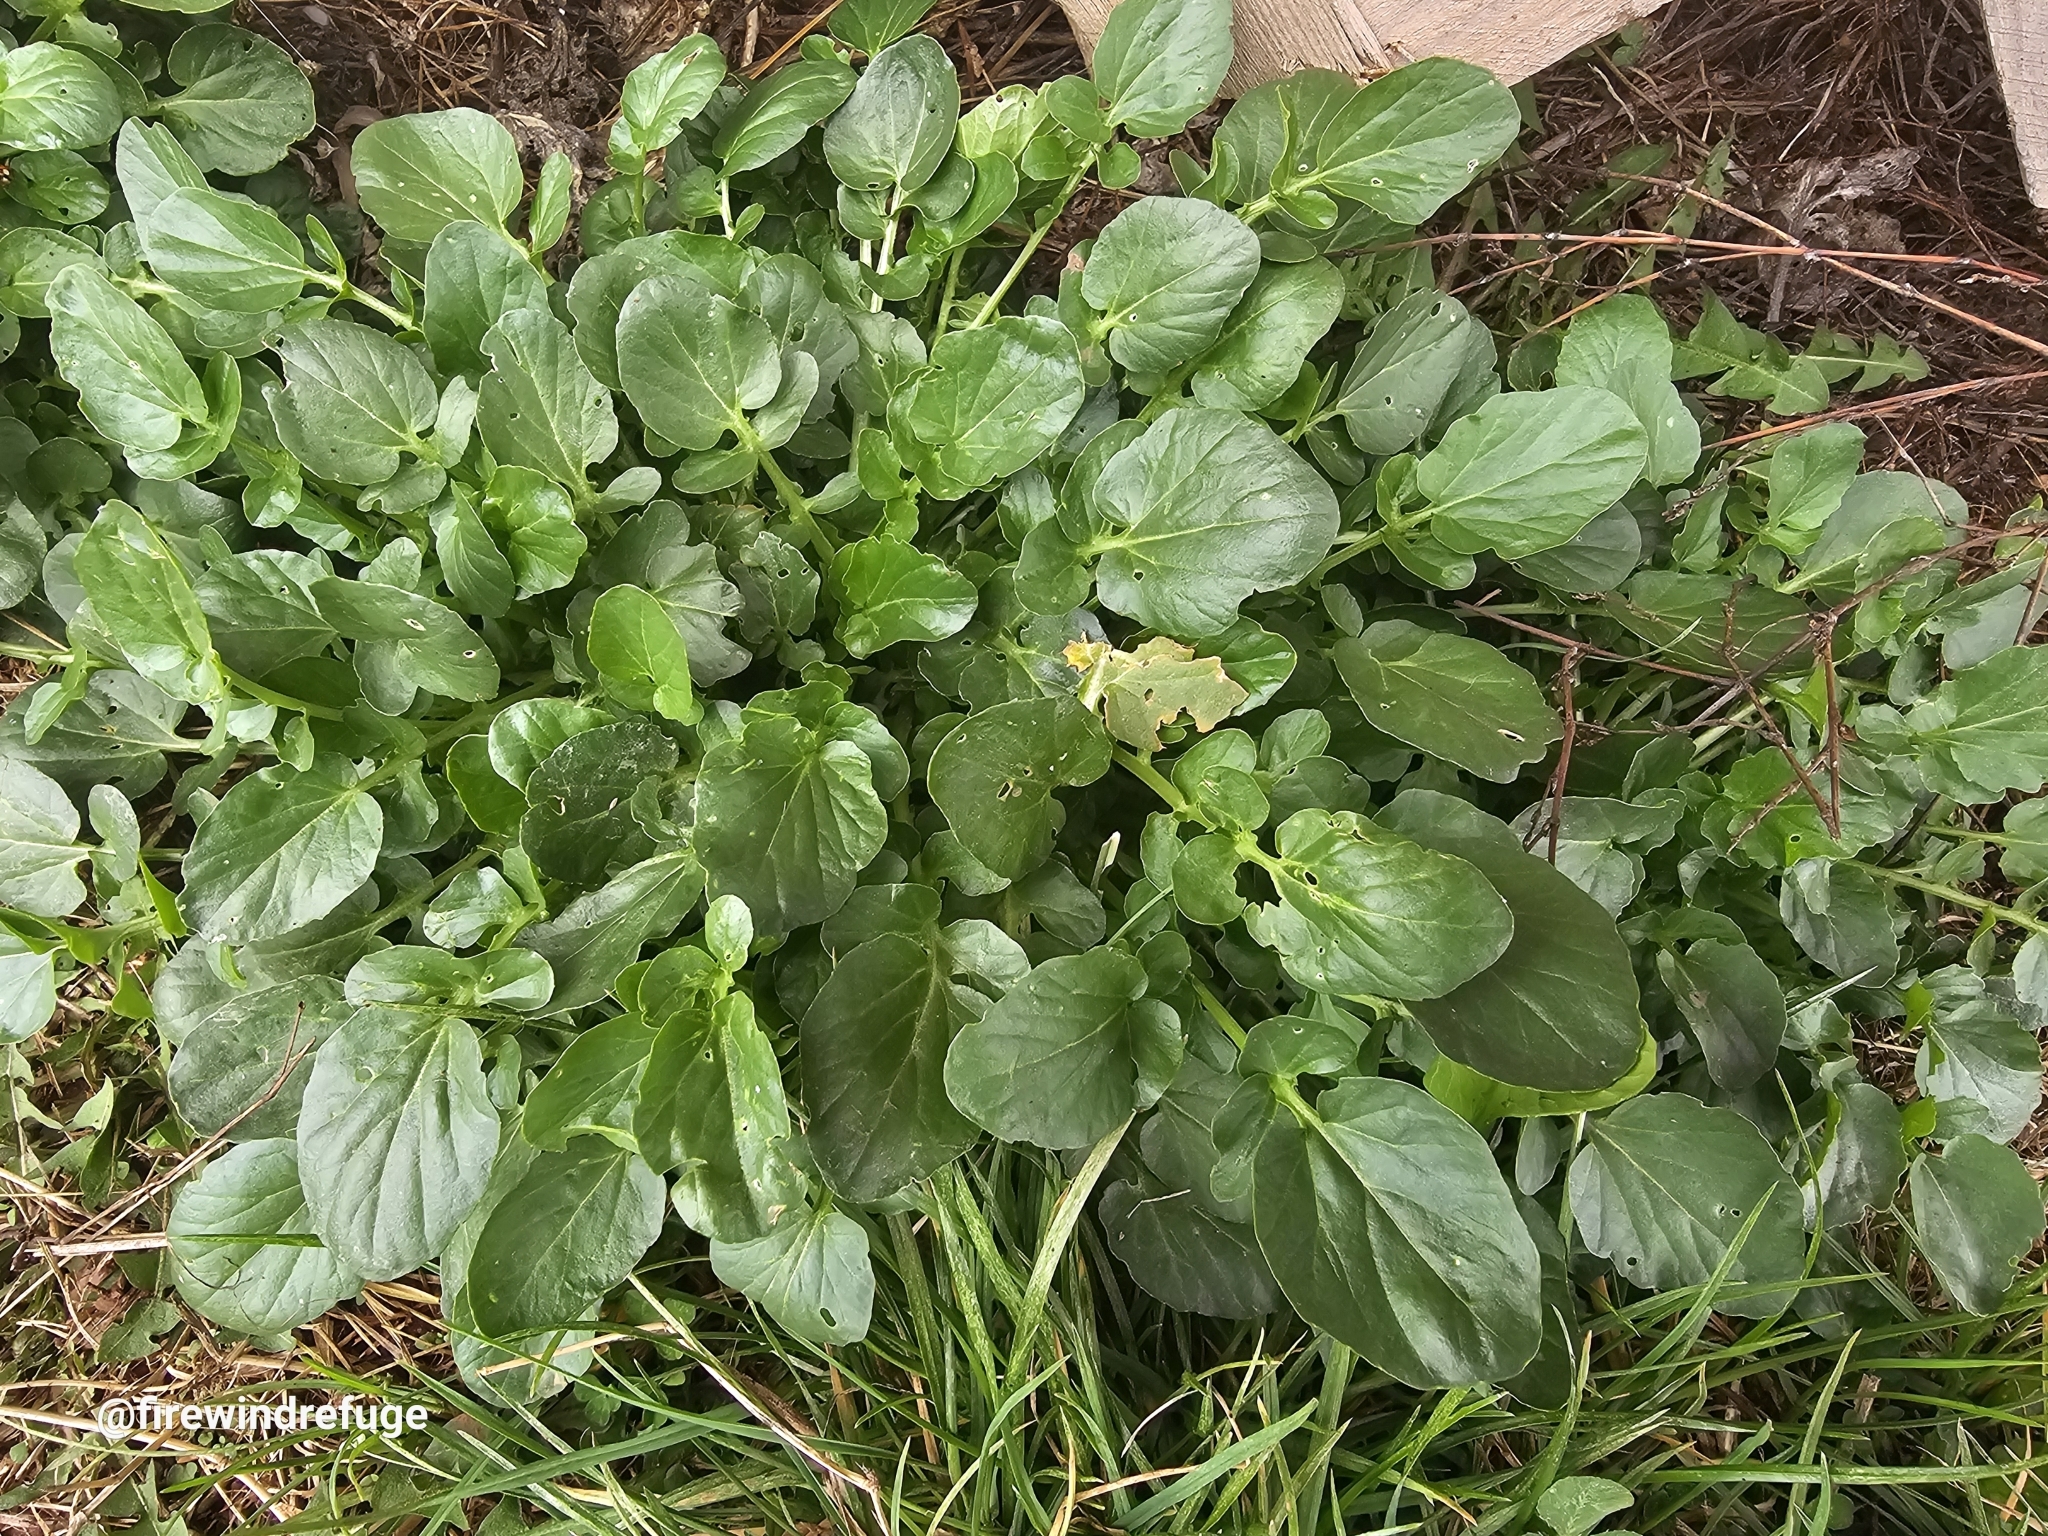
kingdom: Plantae
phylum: Tracheophyta
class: Magnoliopsida
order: Brassicales
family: Brassicaceae
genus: Barbarea
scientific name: Barbarea vulgaris
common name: Cressy-greens
